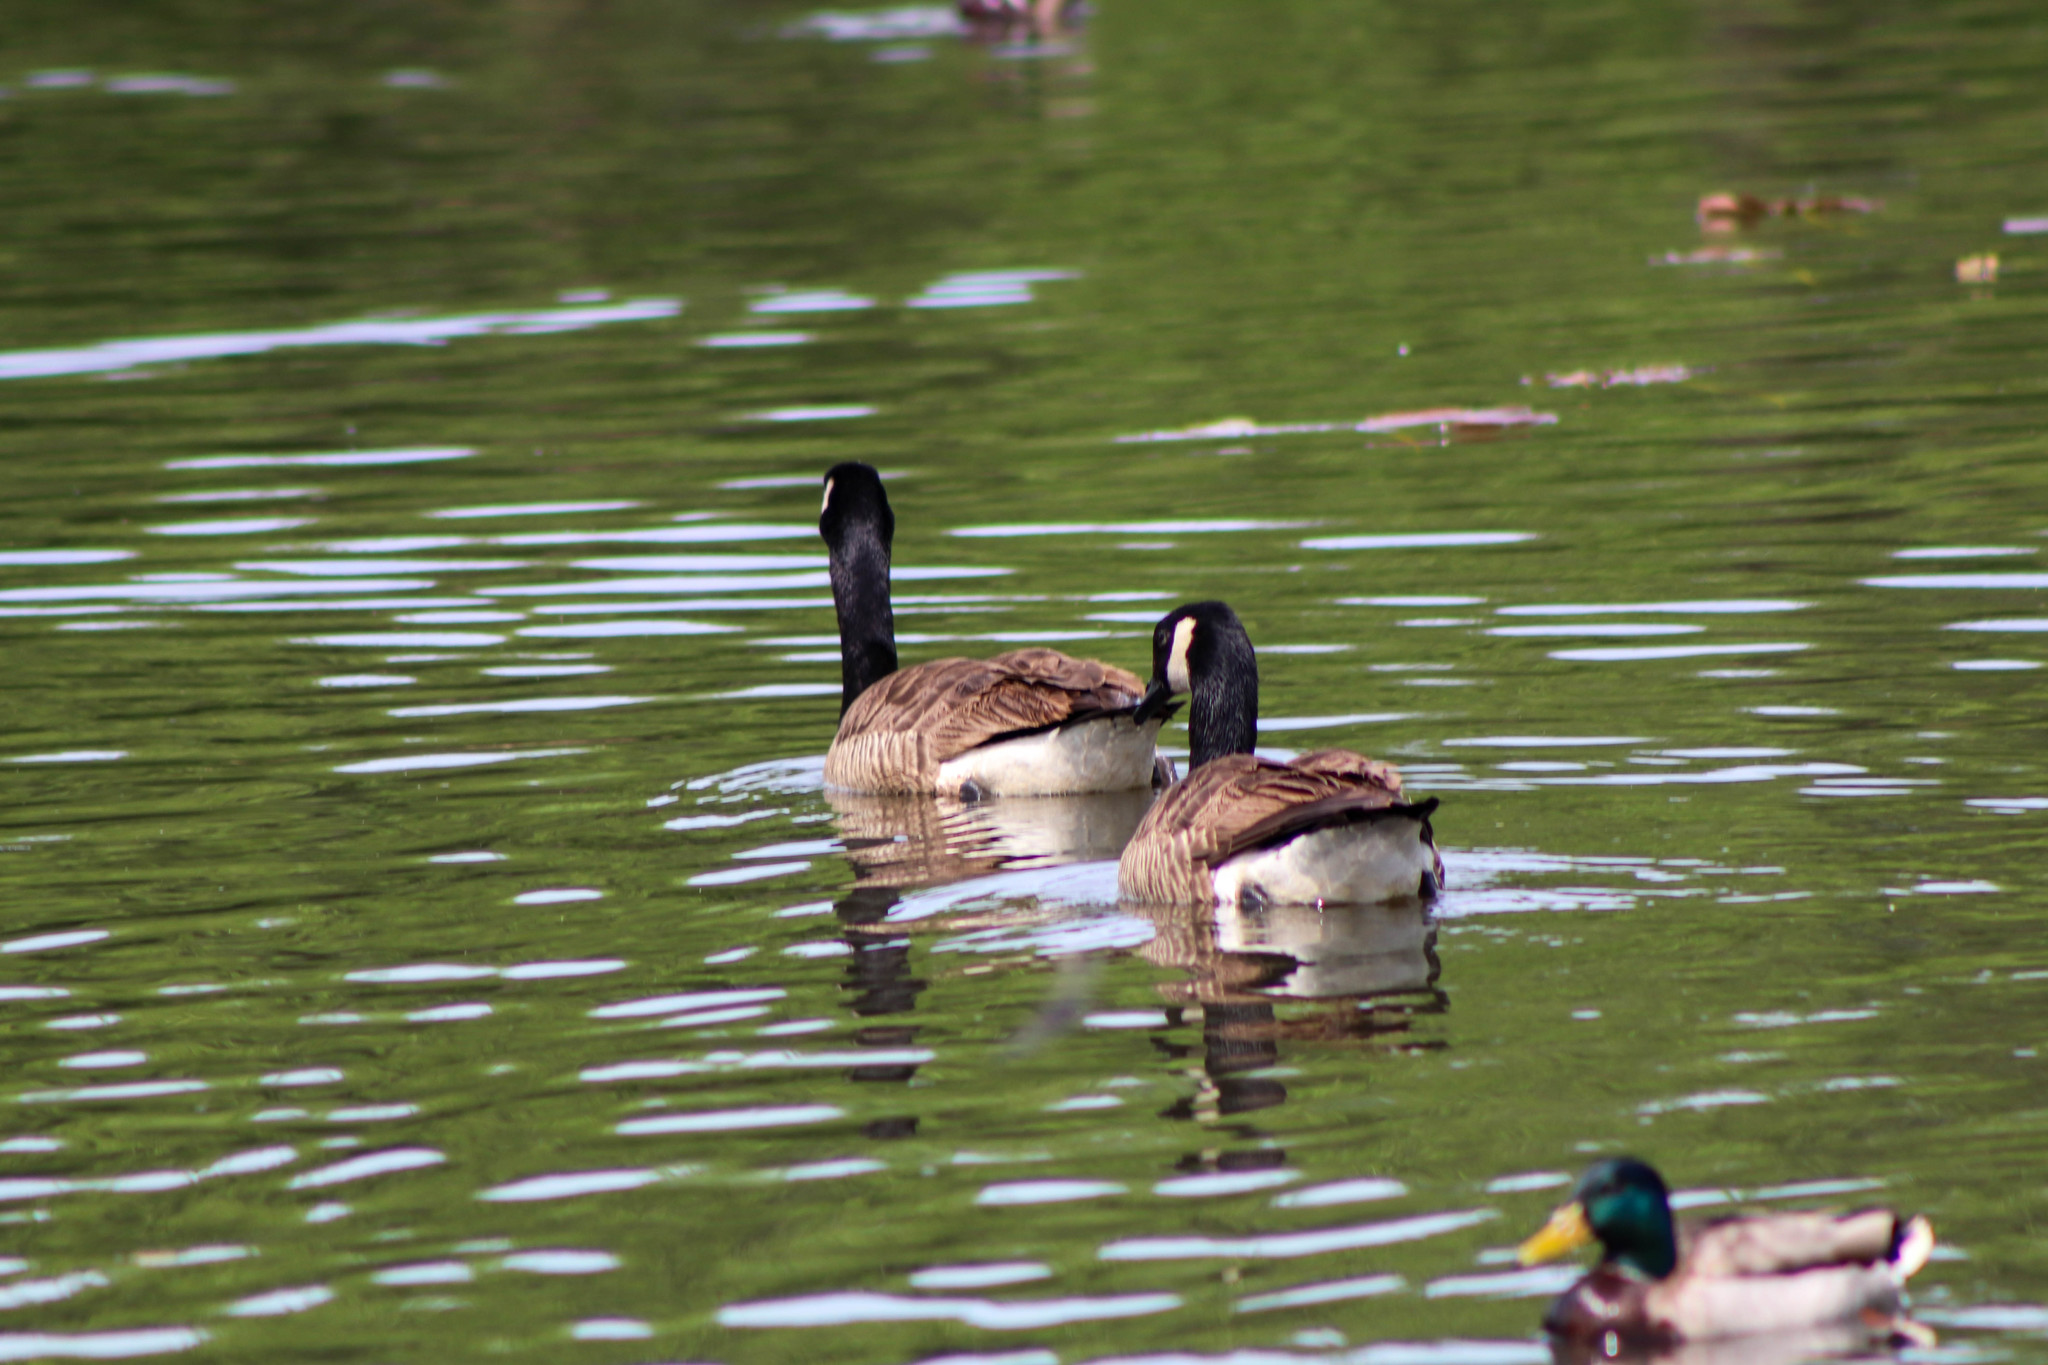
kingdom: Animalia
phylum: Chordata
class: Aves
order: Anseriformes
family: Anatidae
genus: Branta
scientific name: Branta canadensis
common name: Canada goose
